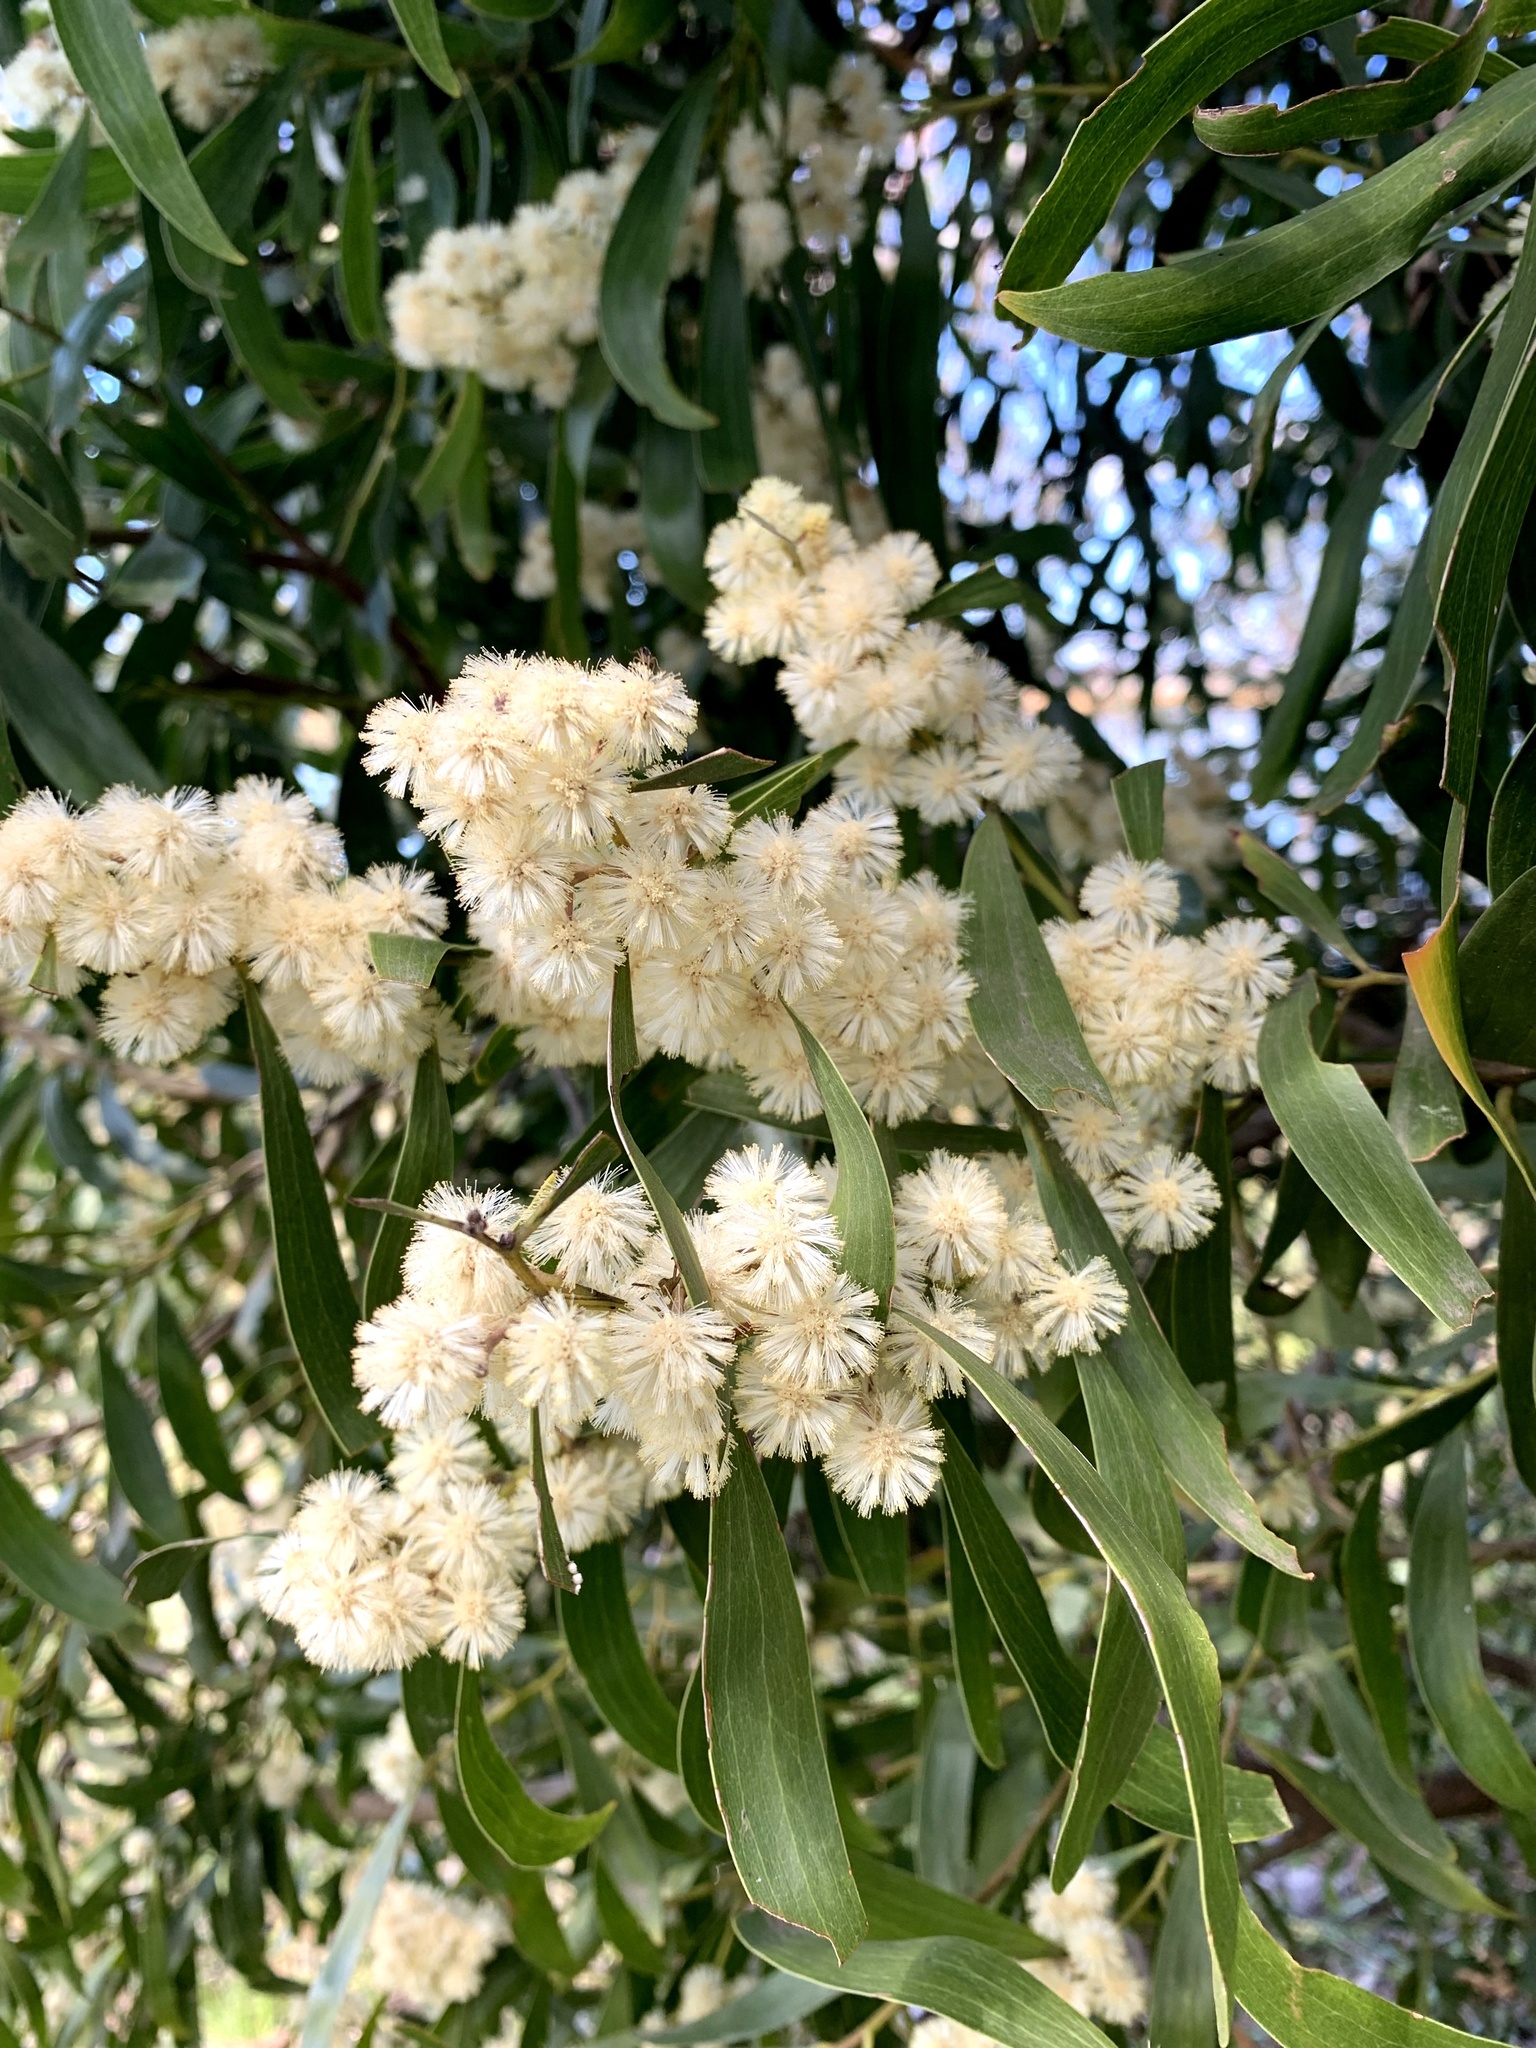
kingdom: Plantae
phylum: Tracheophyta
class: Magnoliopsida
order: Fabales
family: Fabaceae
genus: Acacia
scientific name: Acacia melanoxylon
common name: Blackwood
